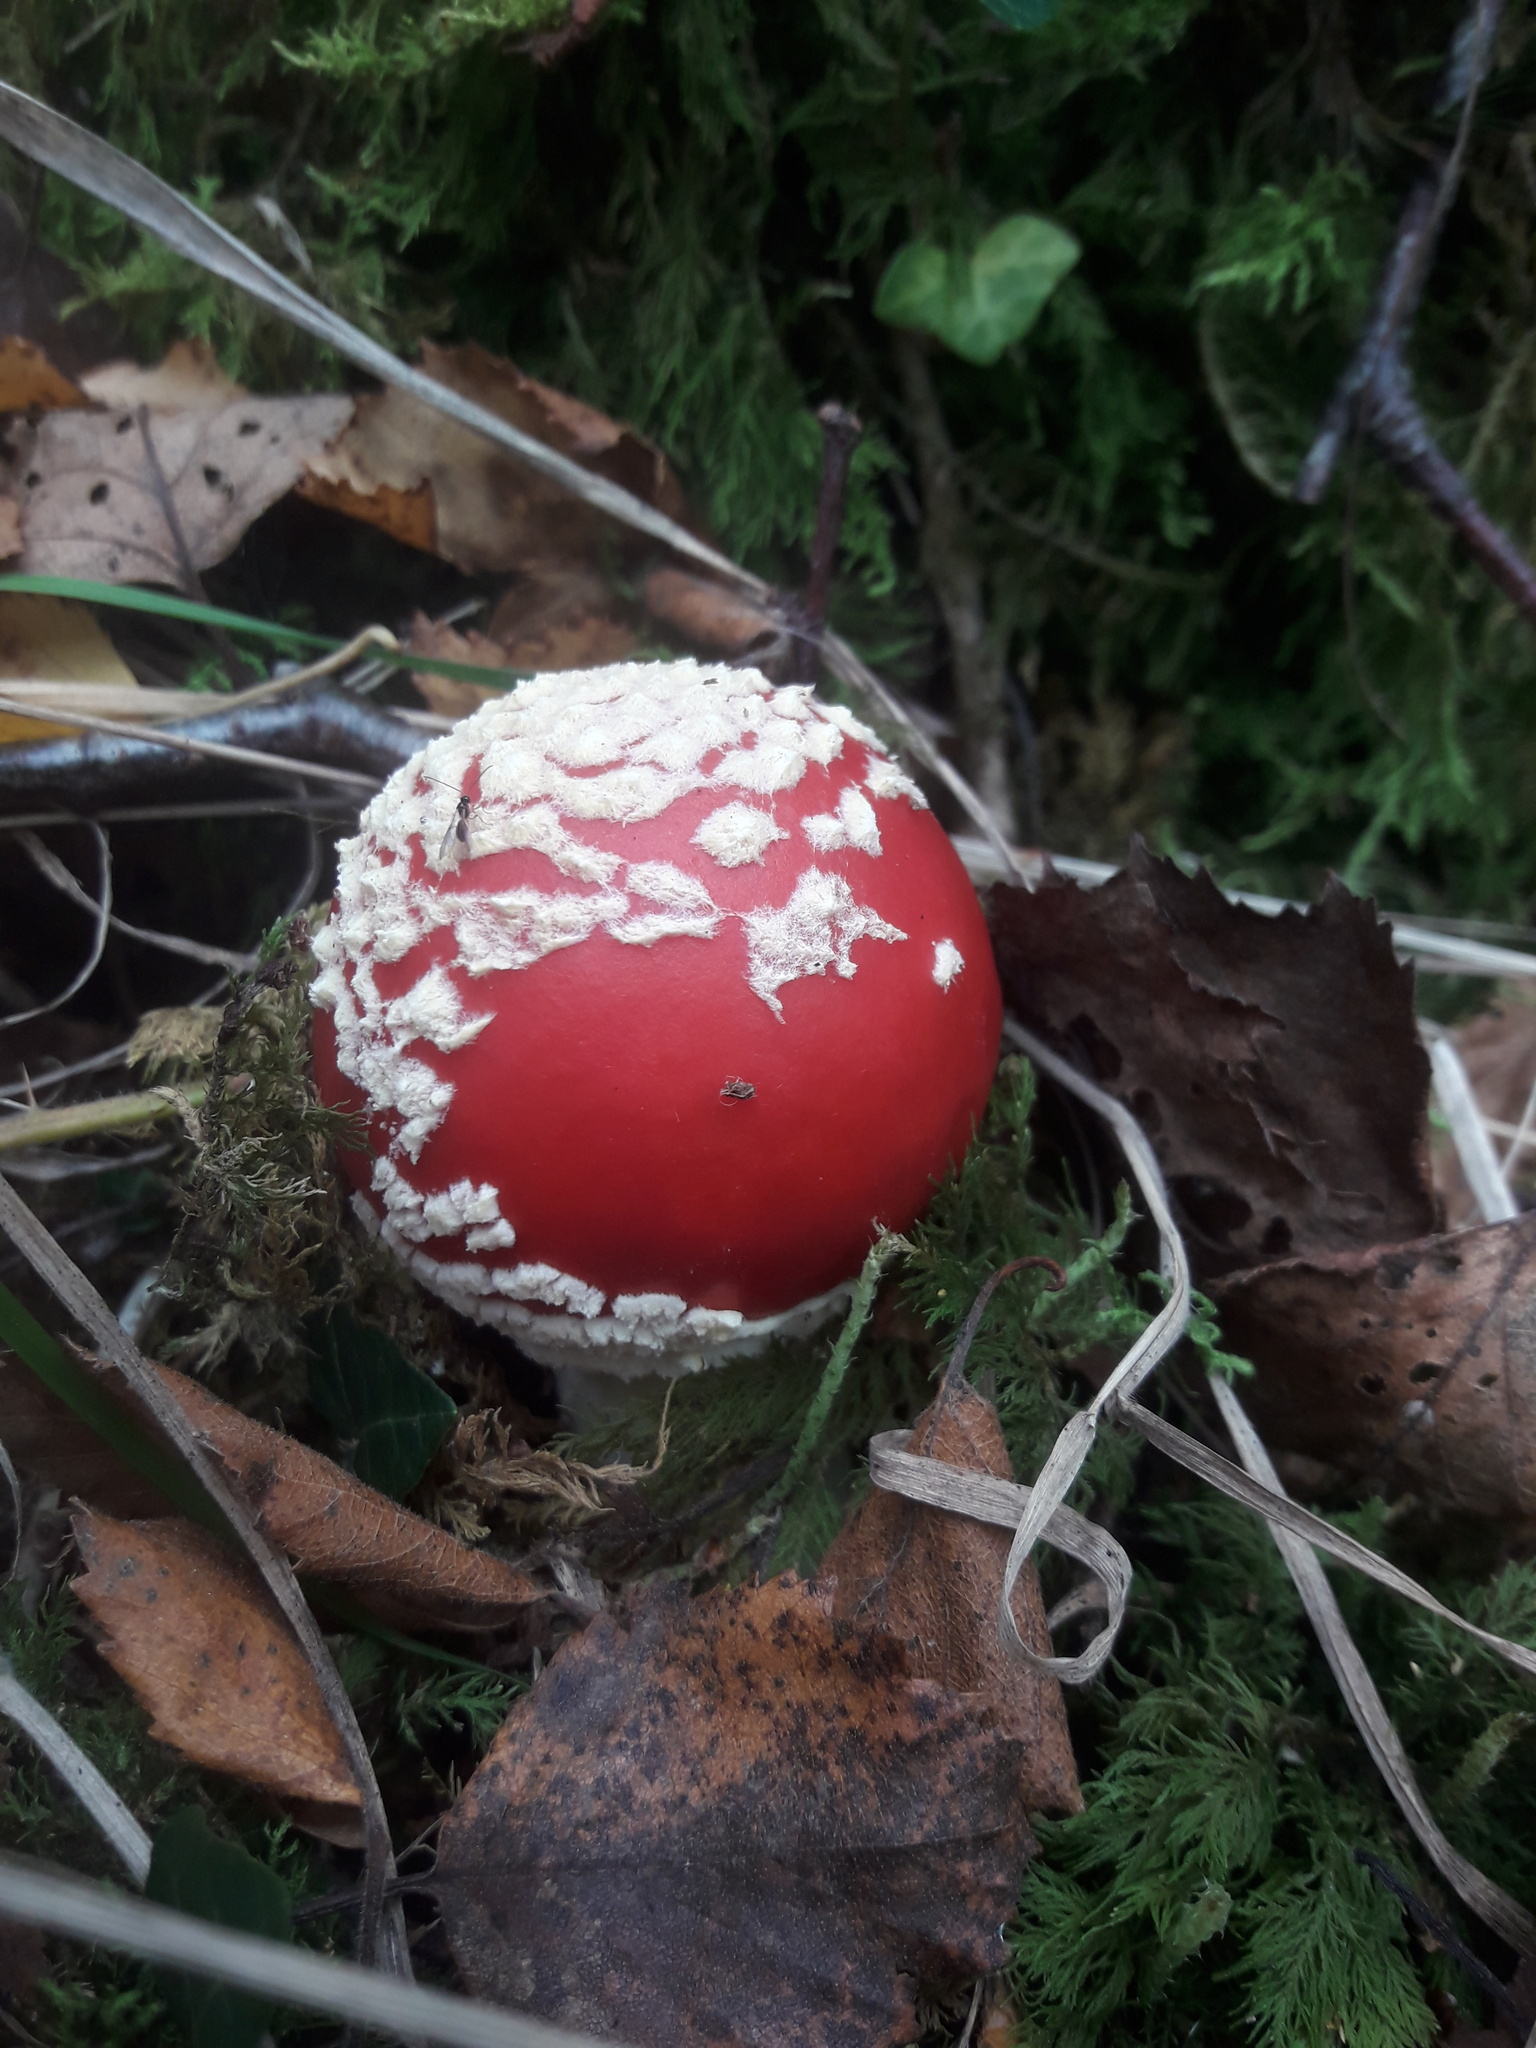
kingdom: Fungi
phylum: Basidiomycota
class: Agaricomycetes
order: Agaricales
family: Amanitaceae
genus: Amanita
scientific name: Amanita muscaria
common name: Fly agaric
